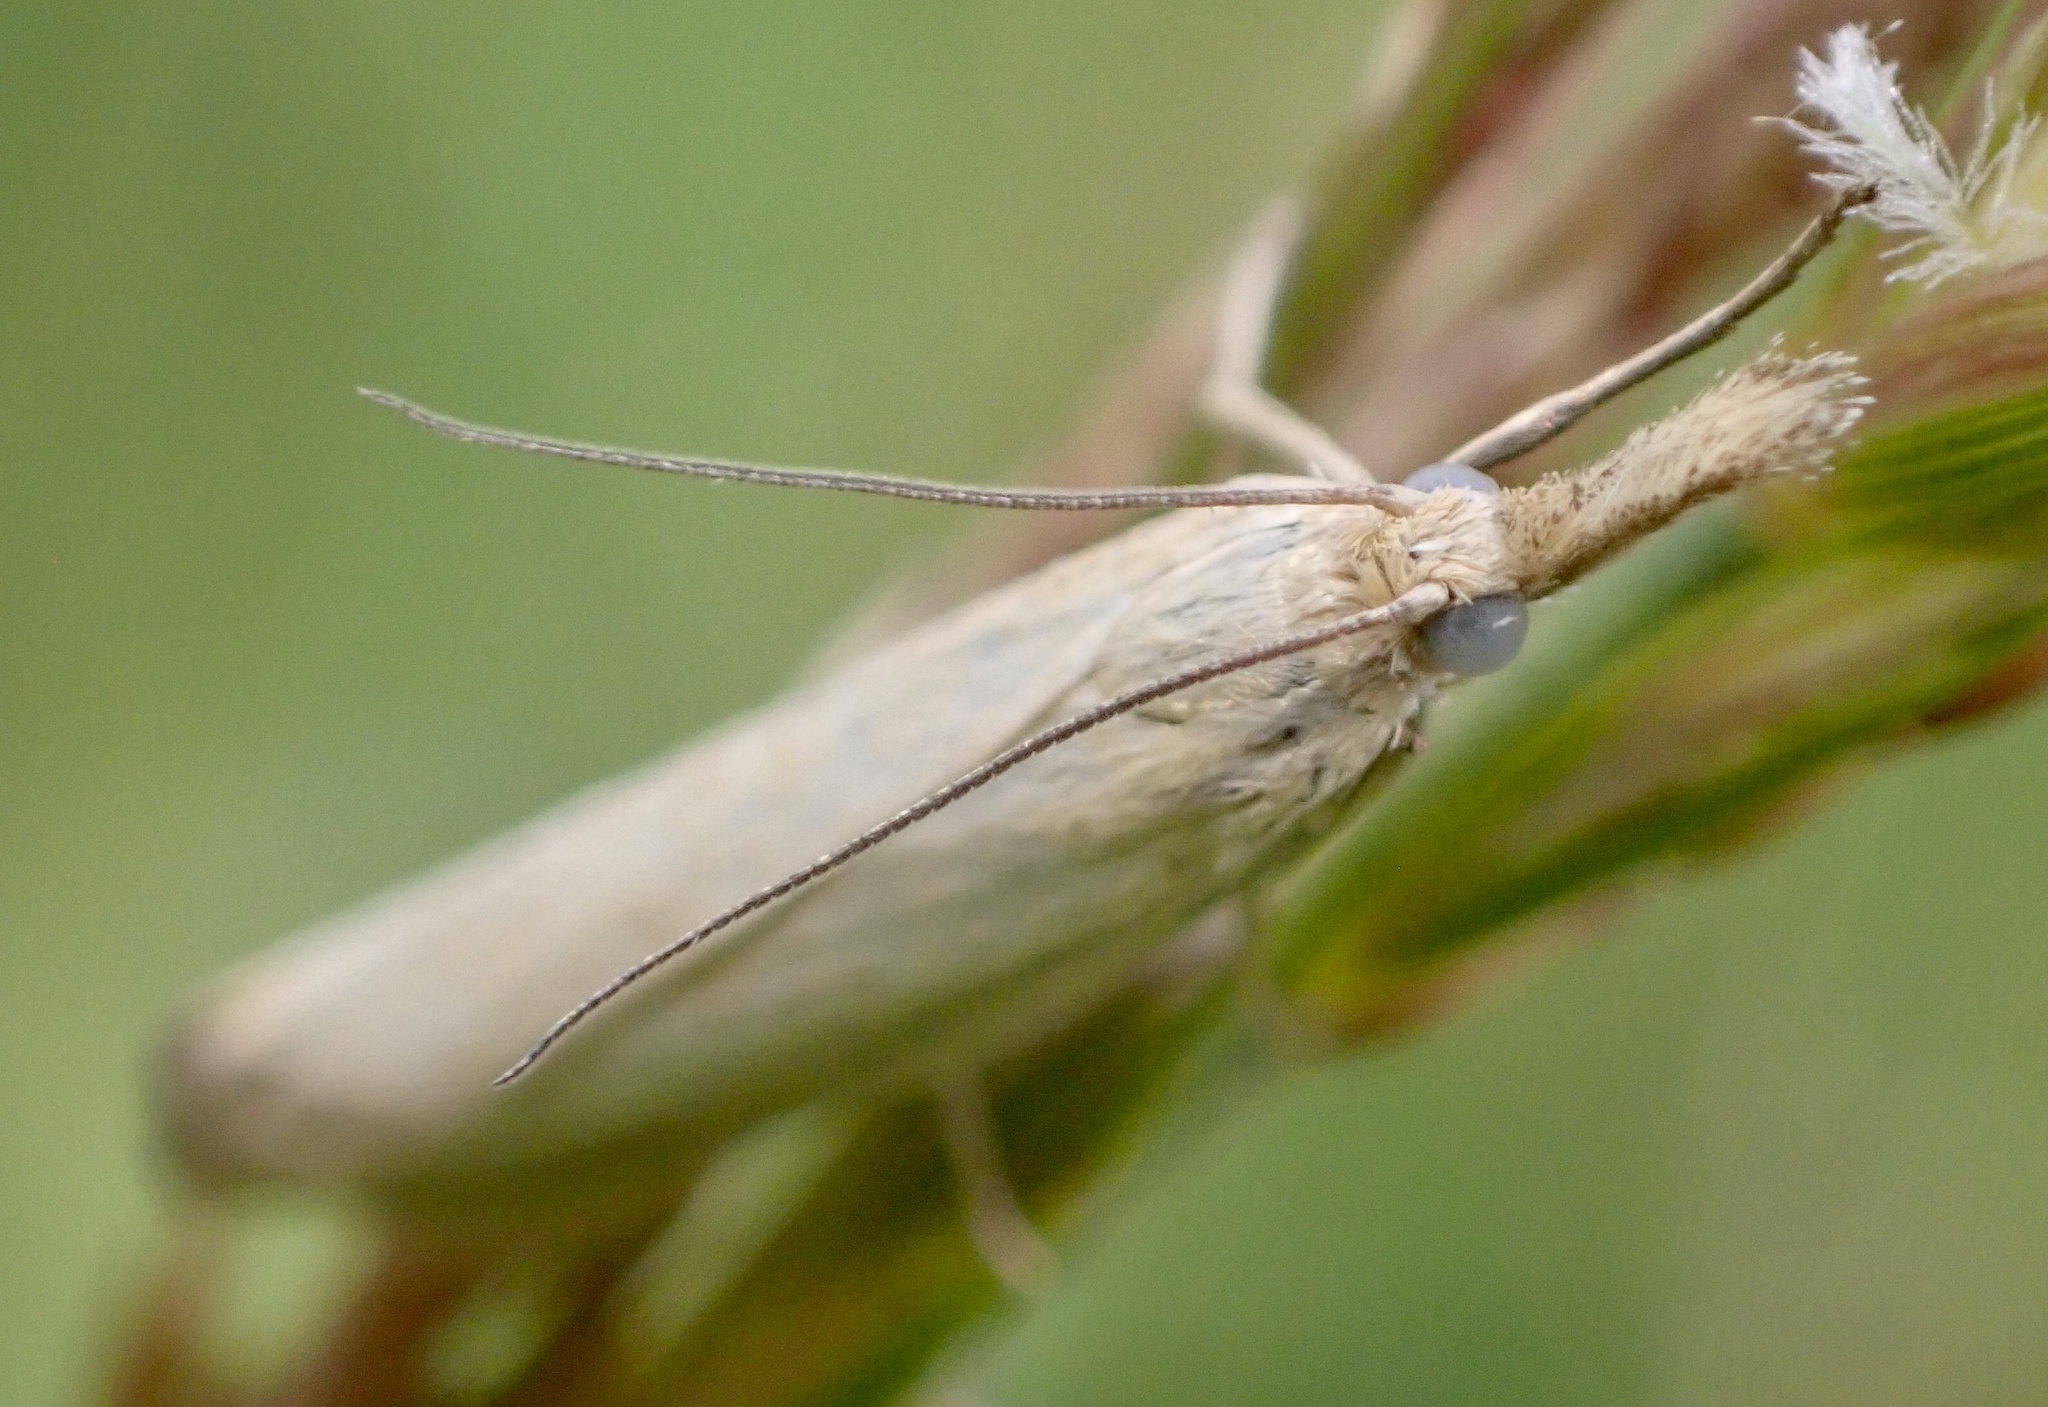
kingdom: Animalia
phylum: Arthropoda
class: Insecta
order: Lepidoptera
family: Crambidae
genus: Agriphila
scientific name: Agriphila straminella
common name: Straw grass-veneer
